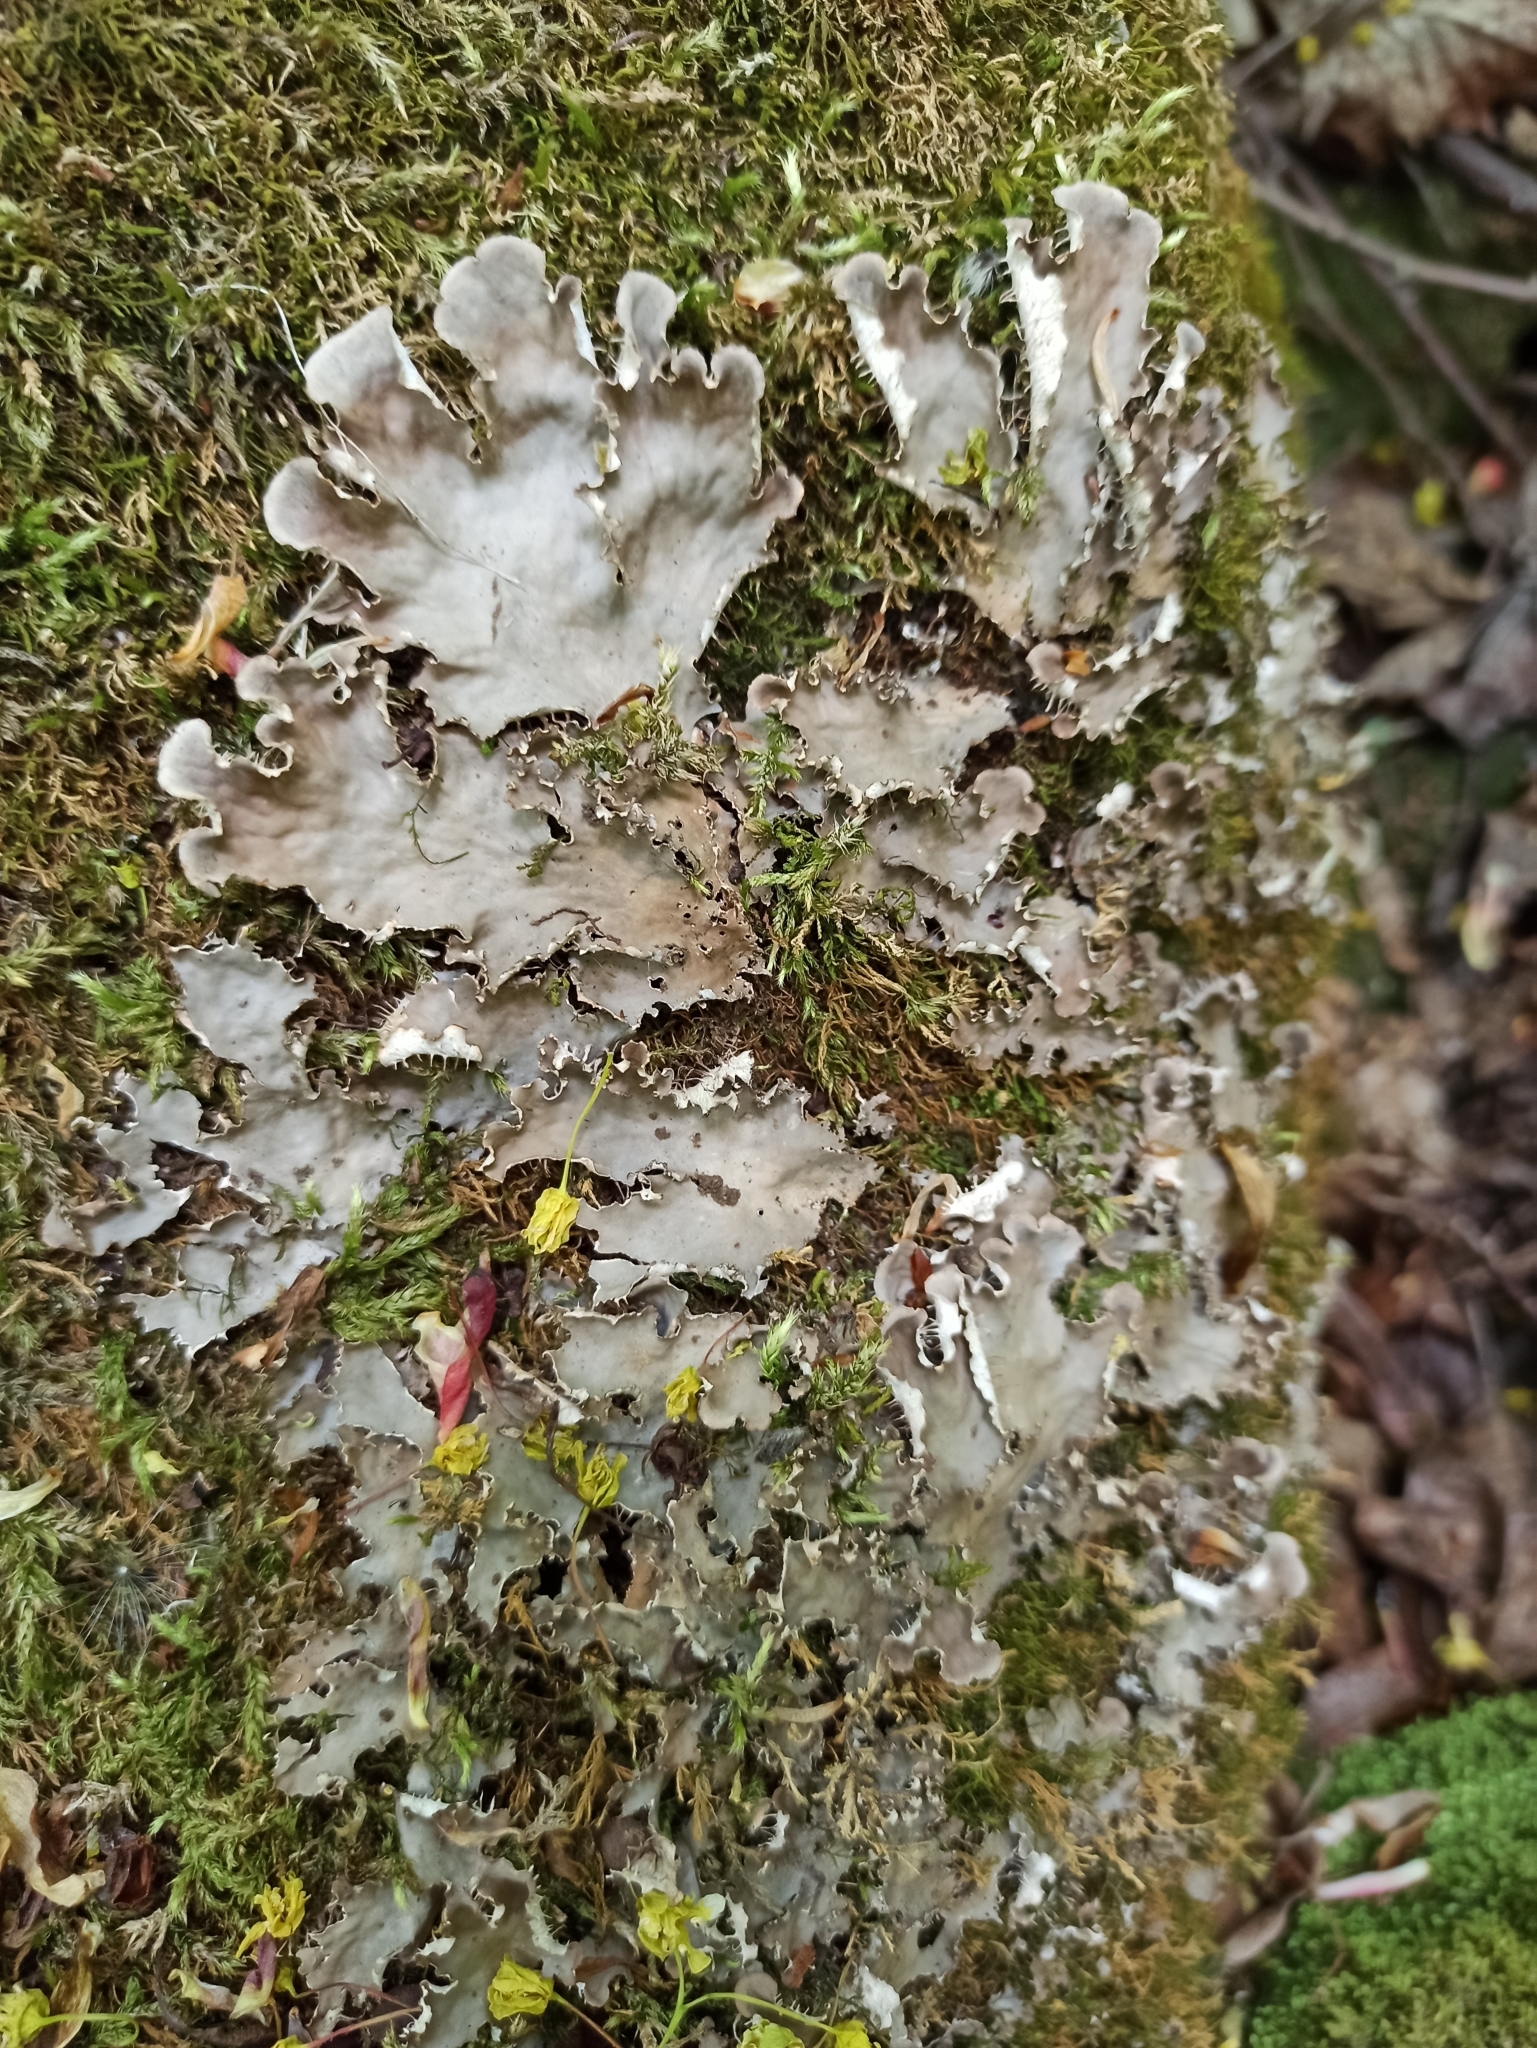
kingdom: Fungi
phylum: Ascomycota
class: Lecanoromycetes
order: Peltigerales
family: Peltigeraceae
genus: Peltigera
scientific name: Peltigera praetextata
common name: Scaly dog-lichen
